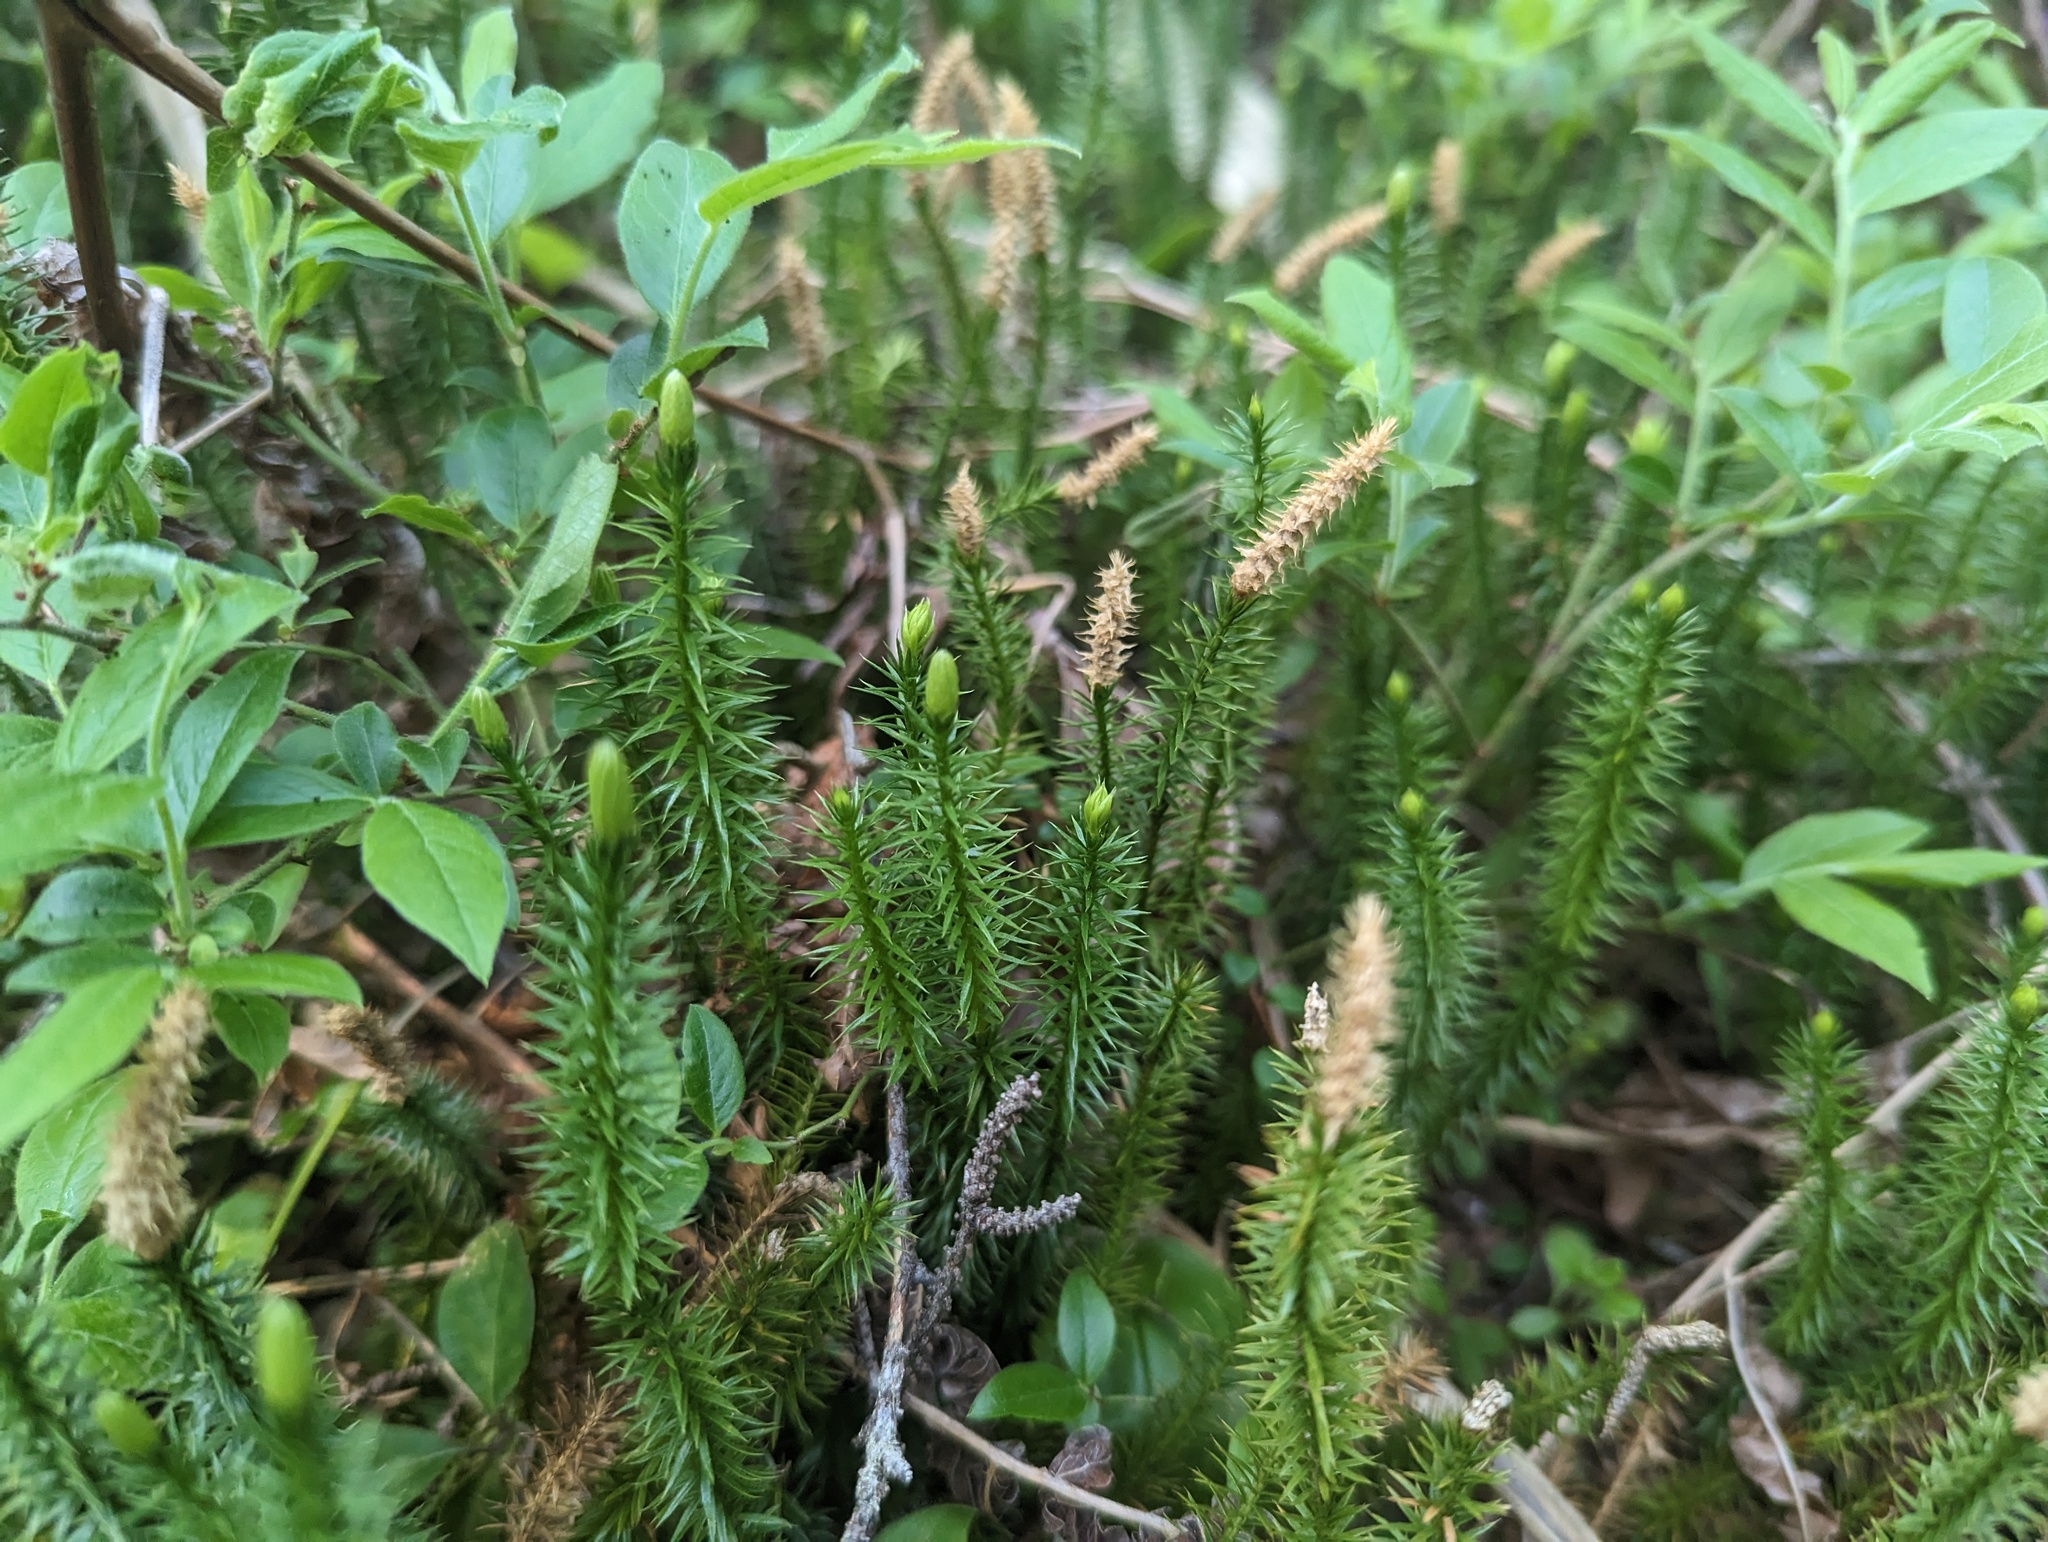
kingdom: Plantae
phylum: Tracheophyta
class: Lycopodiopsida
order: Lycopodiales
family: Lycopodiaceae
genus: Spinulum
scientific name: Spinulum annotinum
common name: Interrupted club-moss
